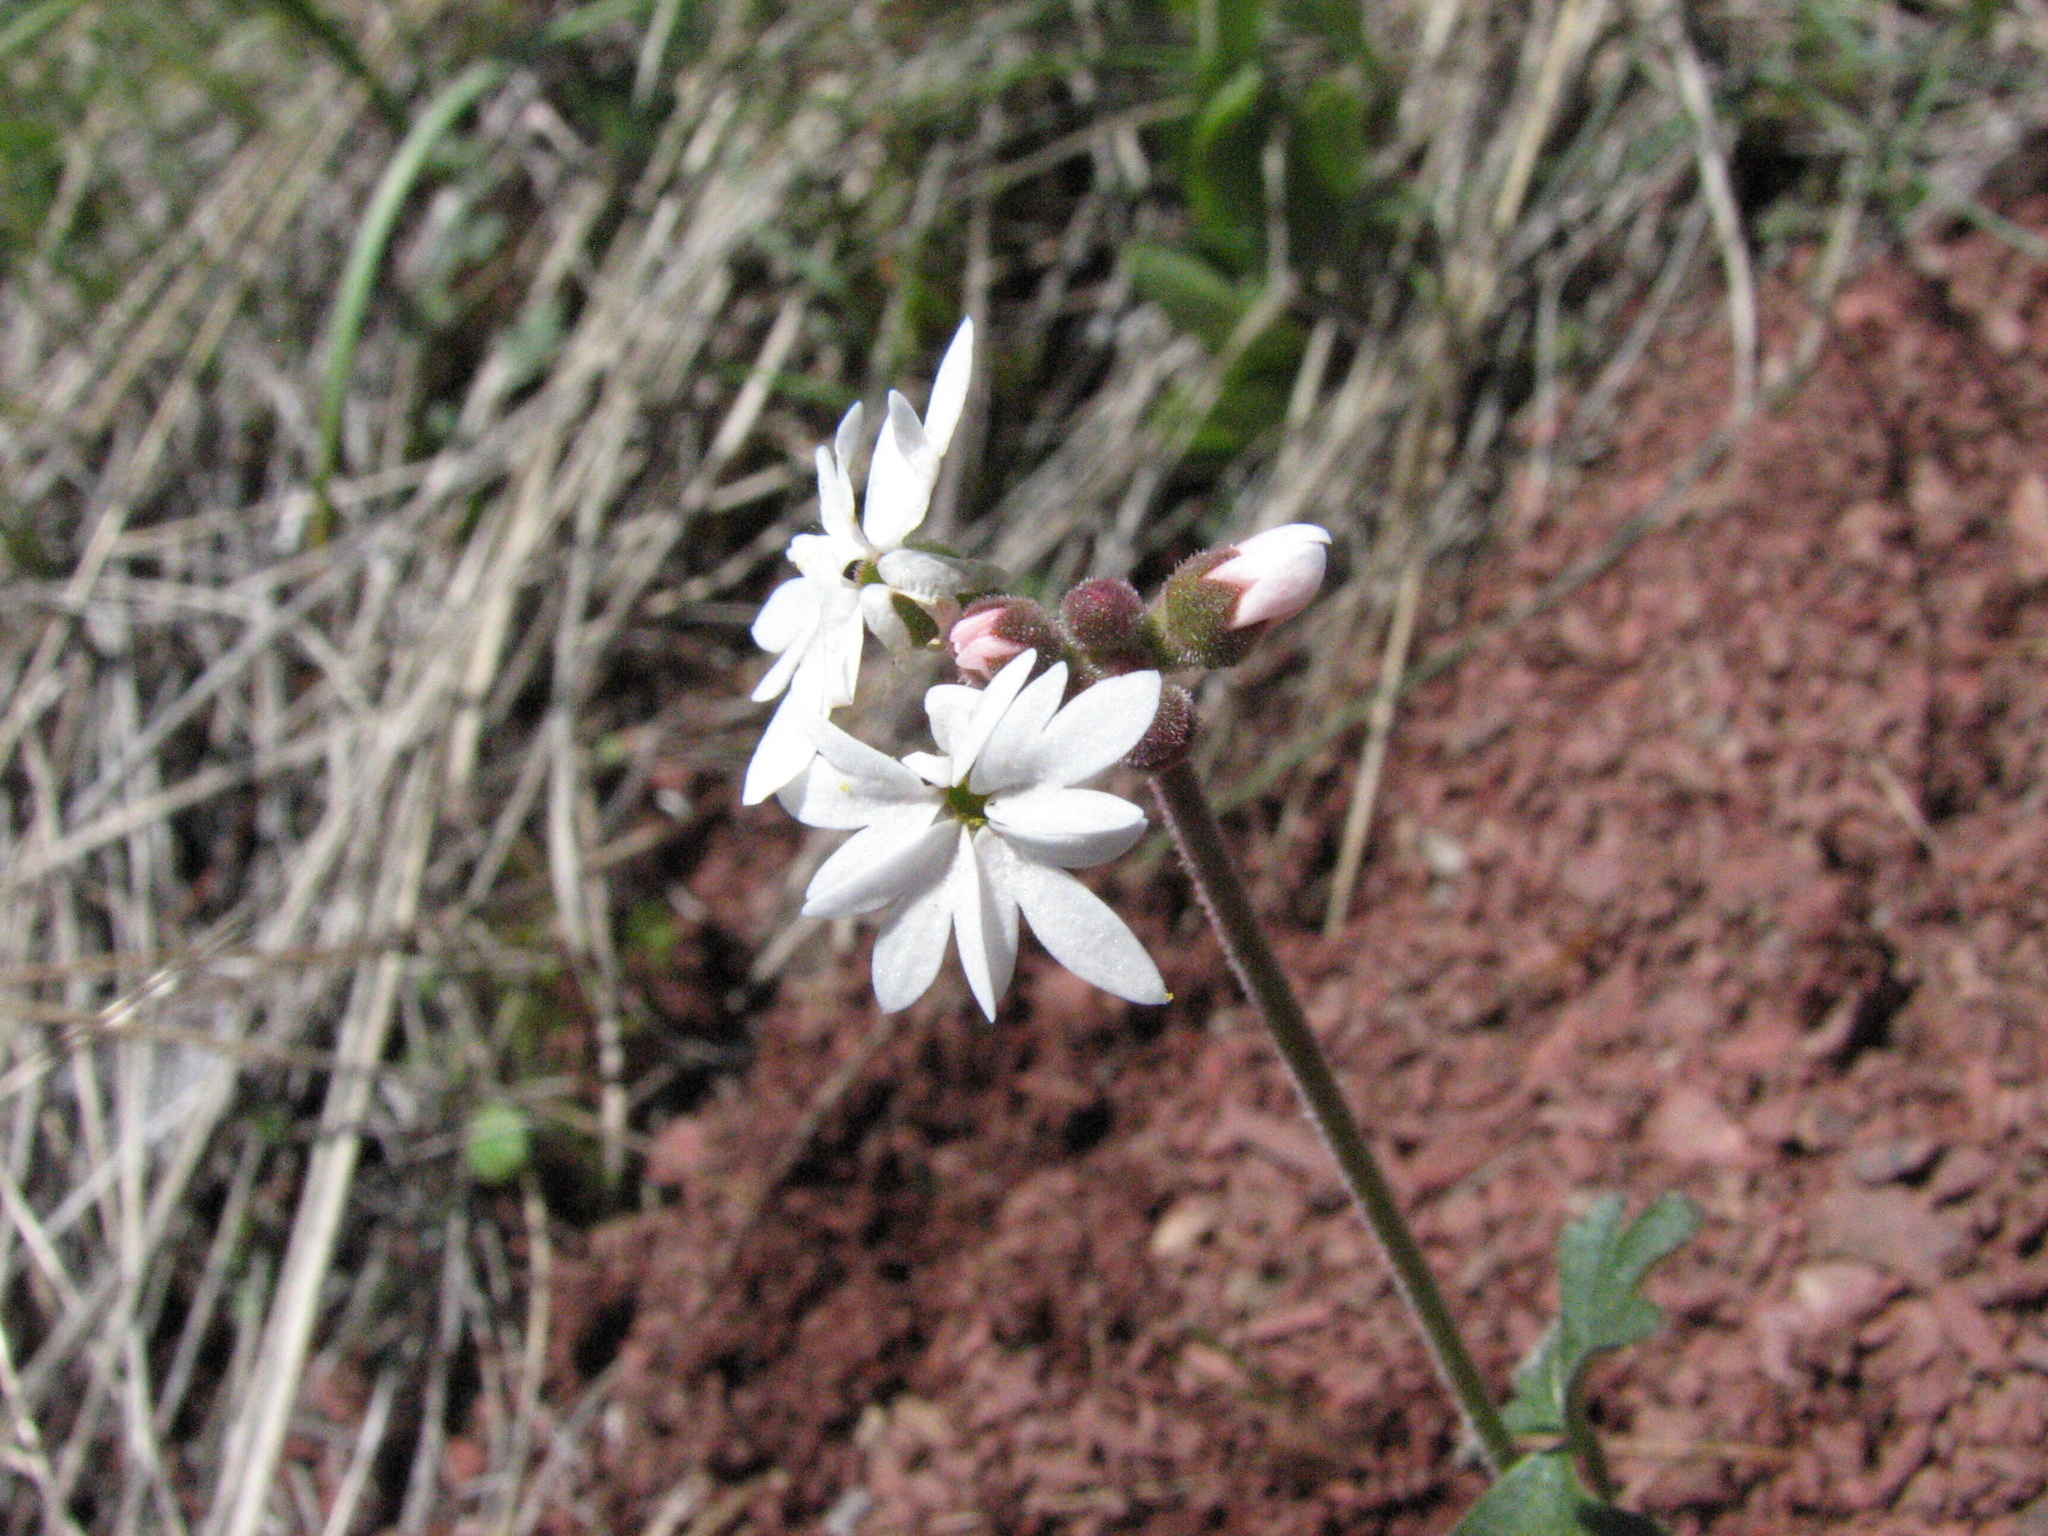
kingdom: Plantae
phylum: Tracheophyta
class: Magnoliopsida
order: Saxifragales
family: Saxifragaceae
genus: Lithophragma
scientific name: Lithophragma parviflorum
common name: Small-flowered fringe-cup
